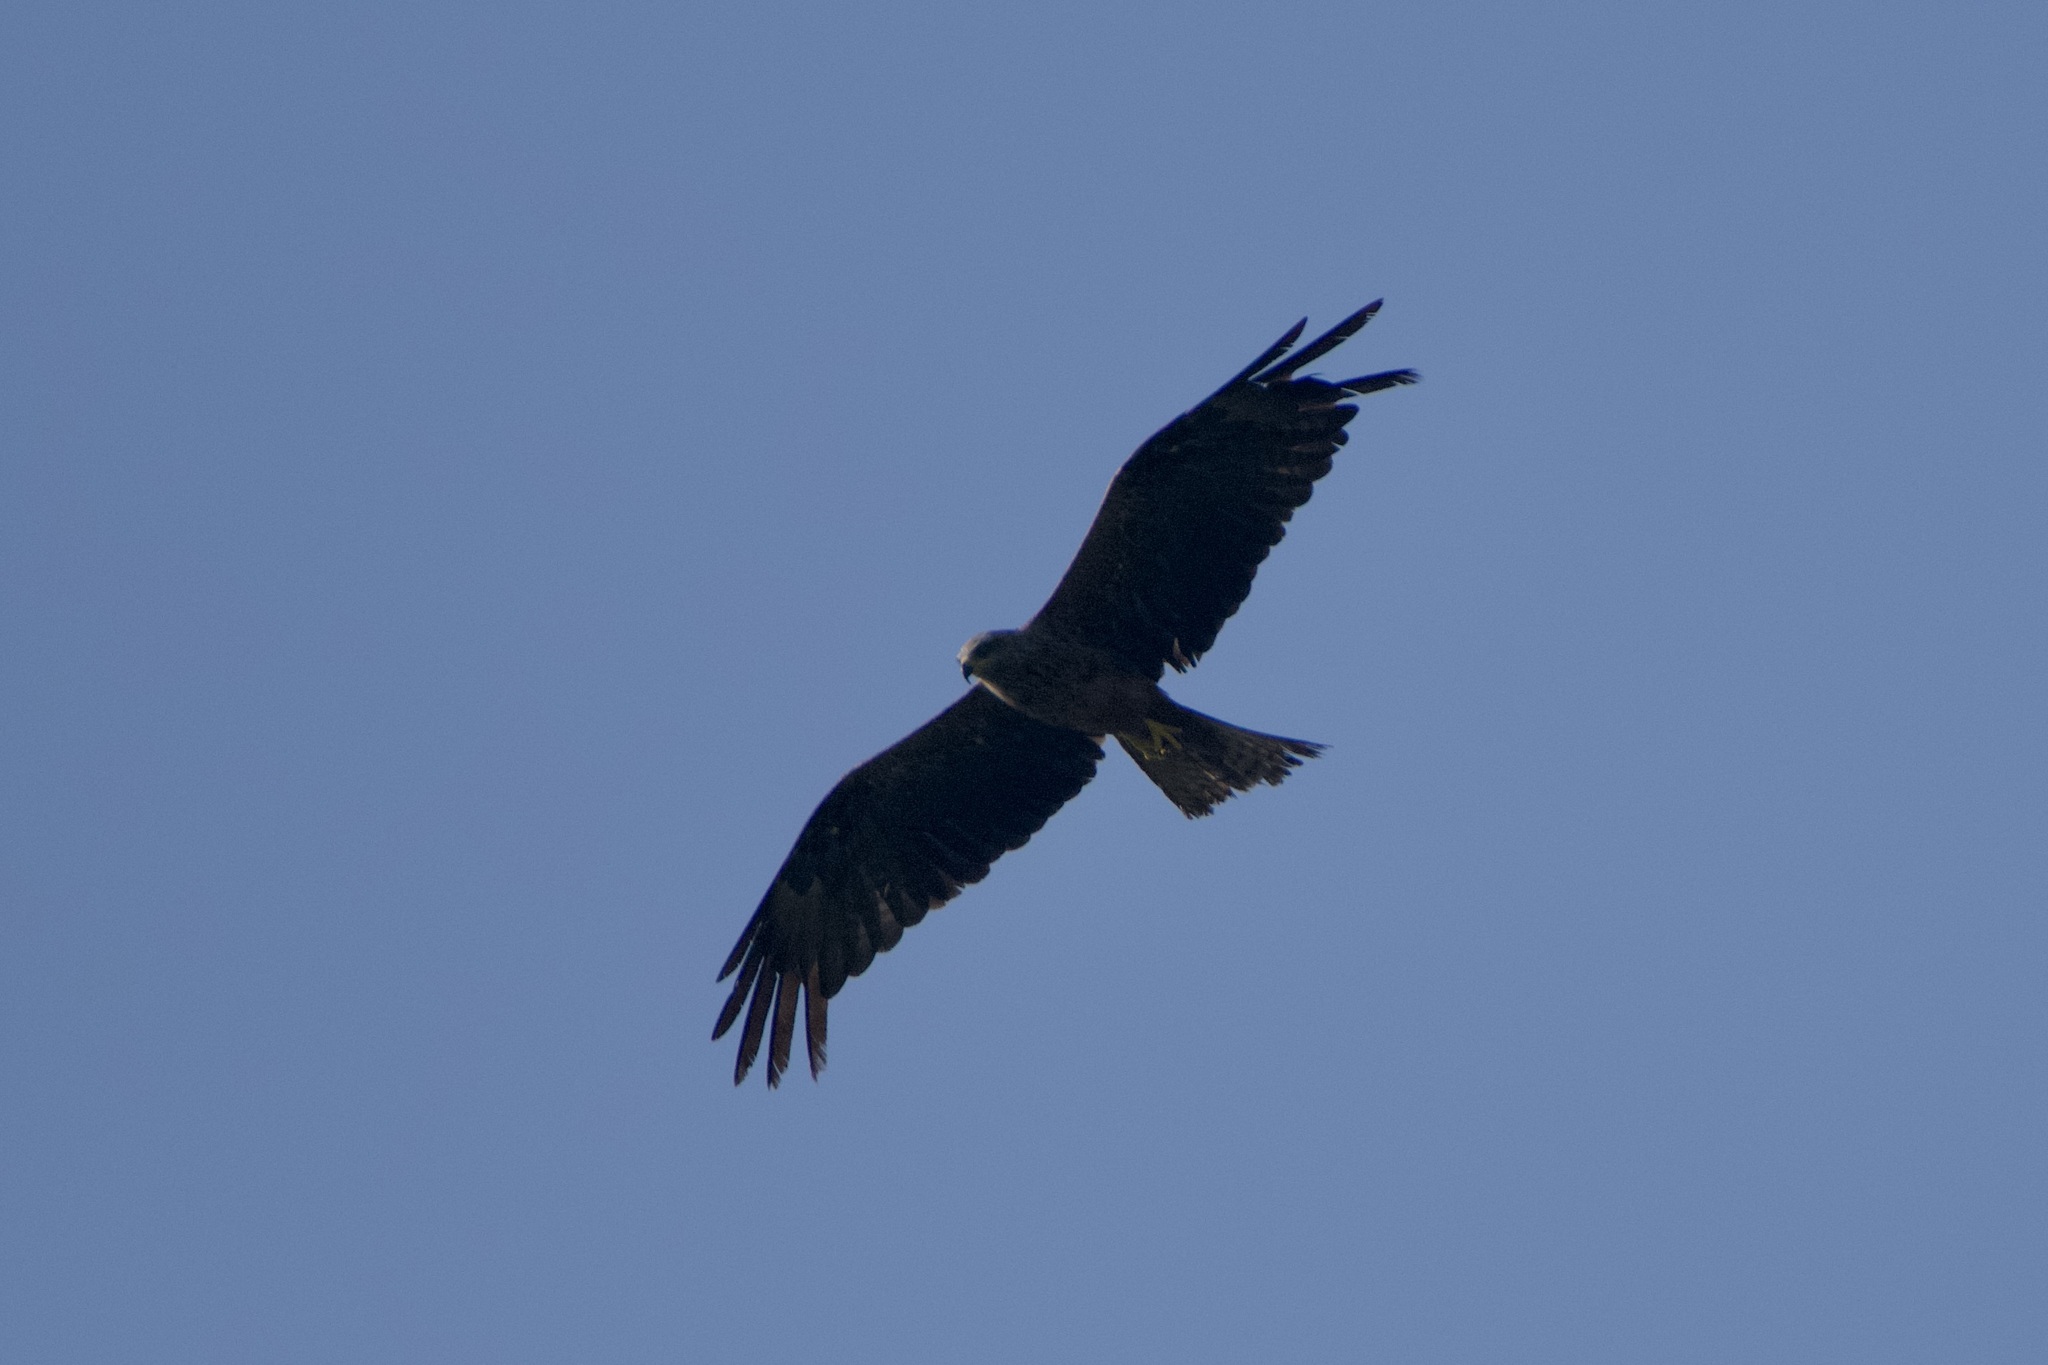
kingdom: Animalia
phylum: Chordata
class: Aves
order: Accipitriformes
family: Accipitridae
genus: Milvus
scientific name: Milvus migrans
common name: Black kite
